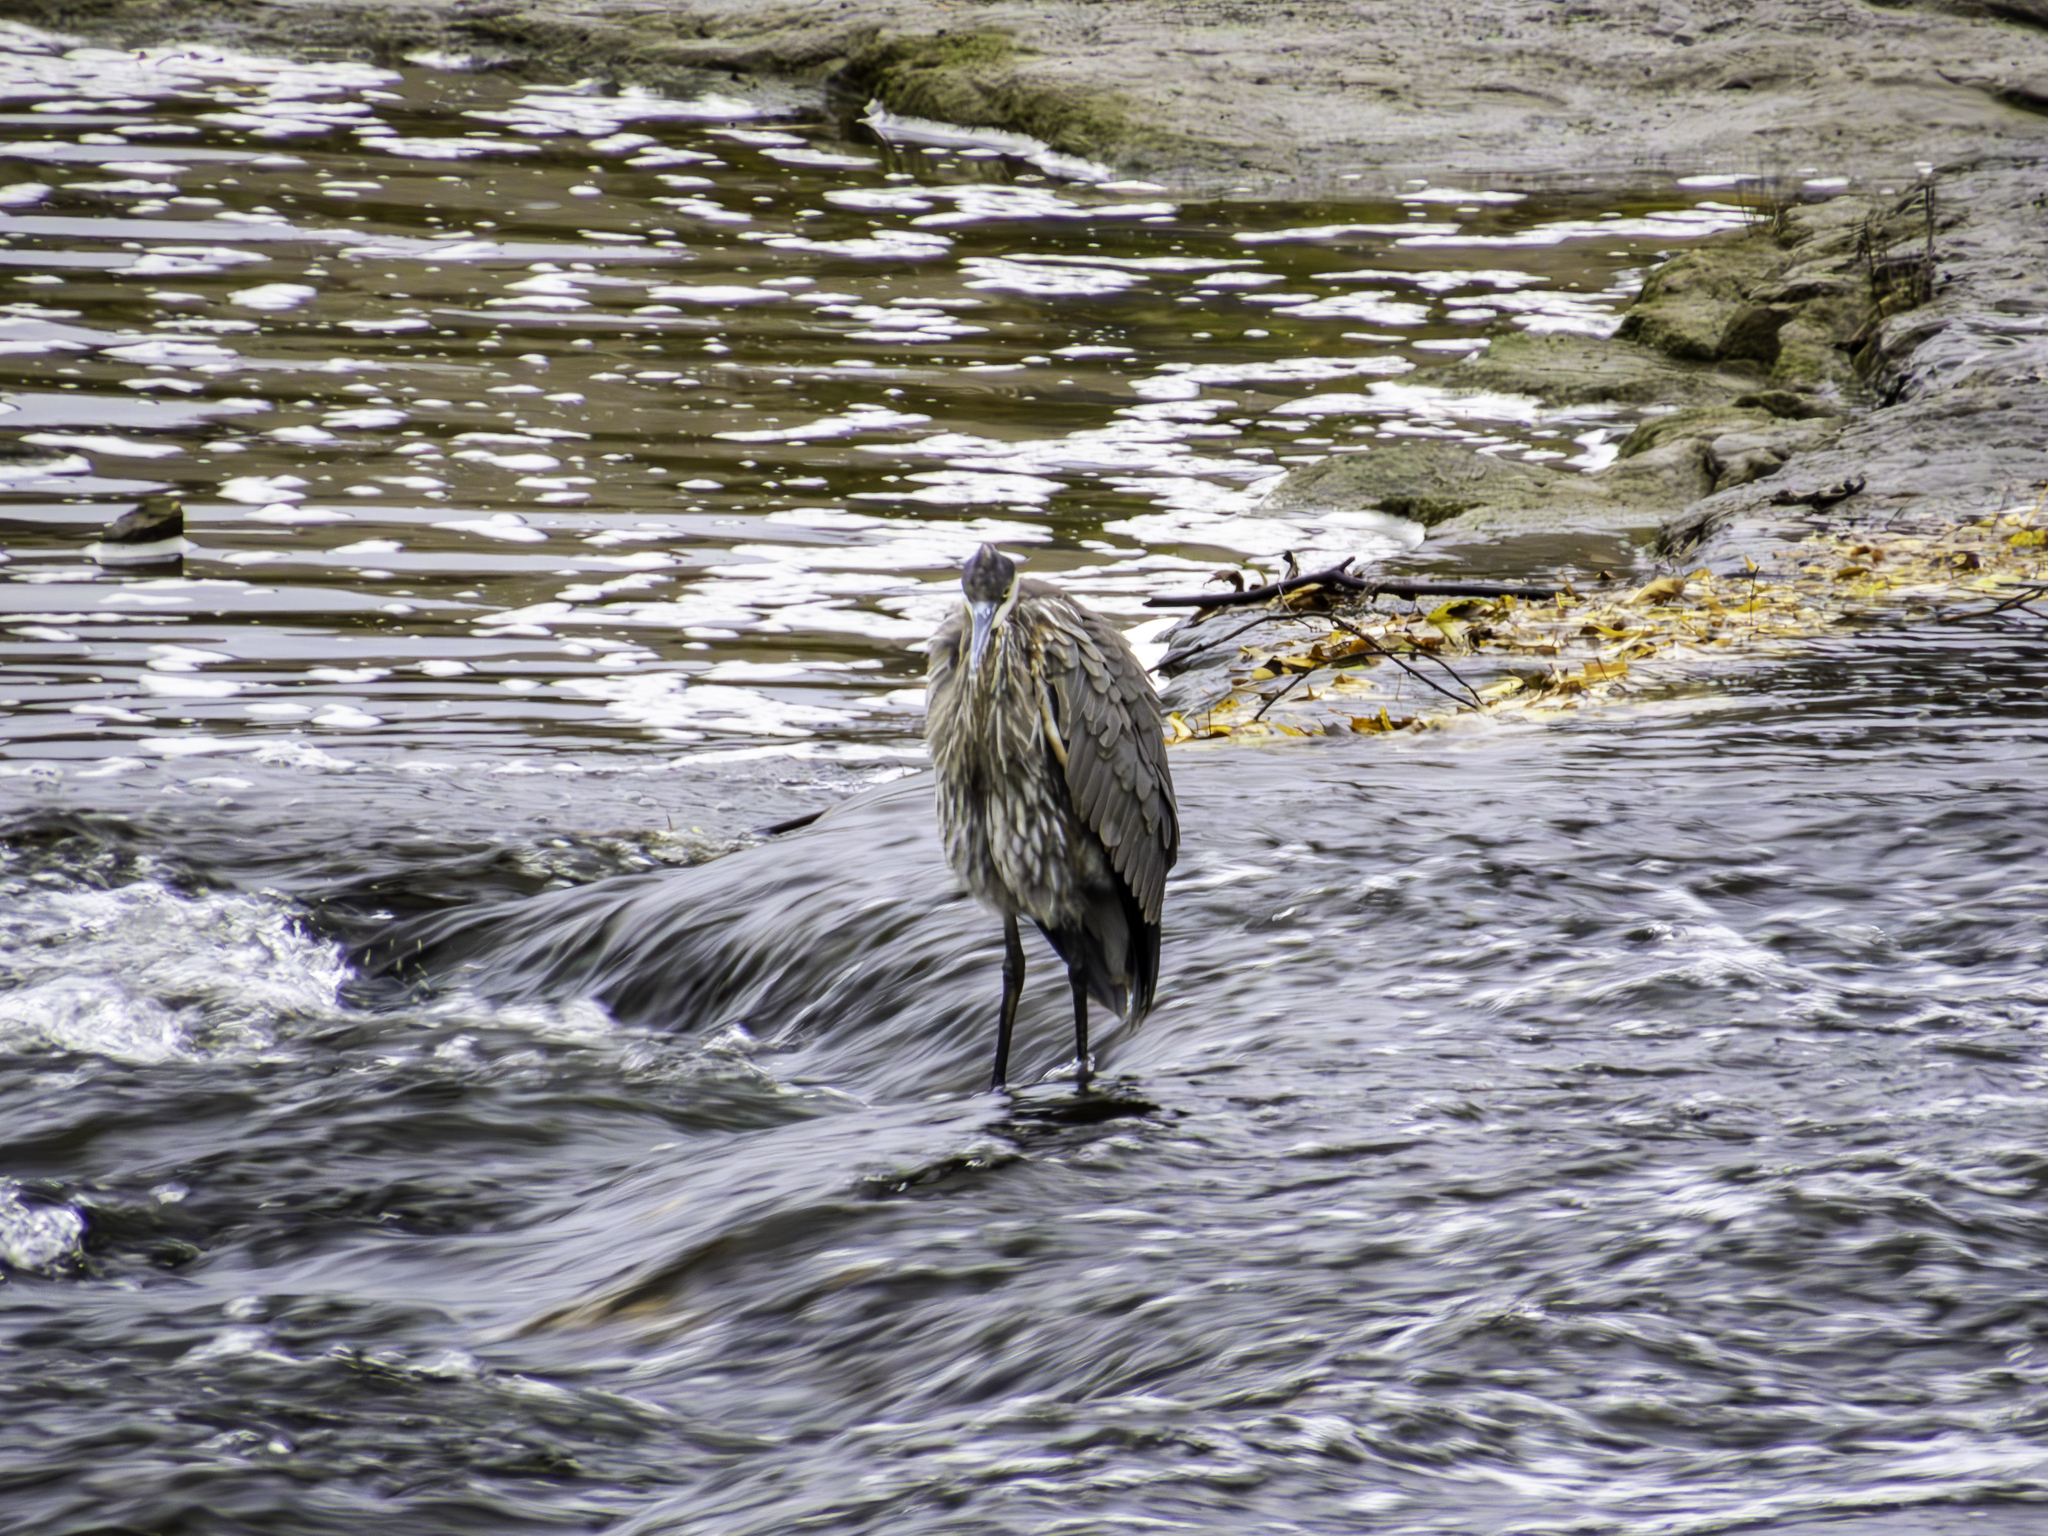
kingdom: Animalia
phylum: Chordata
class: Aves
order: Pelecaniformes
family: Ardeidae
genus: Ardea
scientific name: Ardea herodias
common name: Great blue heron
